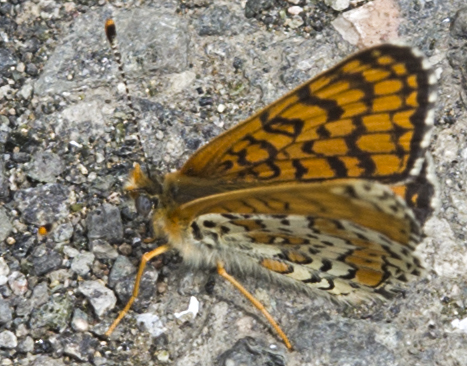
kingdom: Animalia
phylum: Arthropoda
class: Insecta
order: Lepidoptera
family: Nymphalidae
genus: Melitaea
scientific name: Melitaea cinxia
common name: Glanville fritillary
